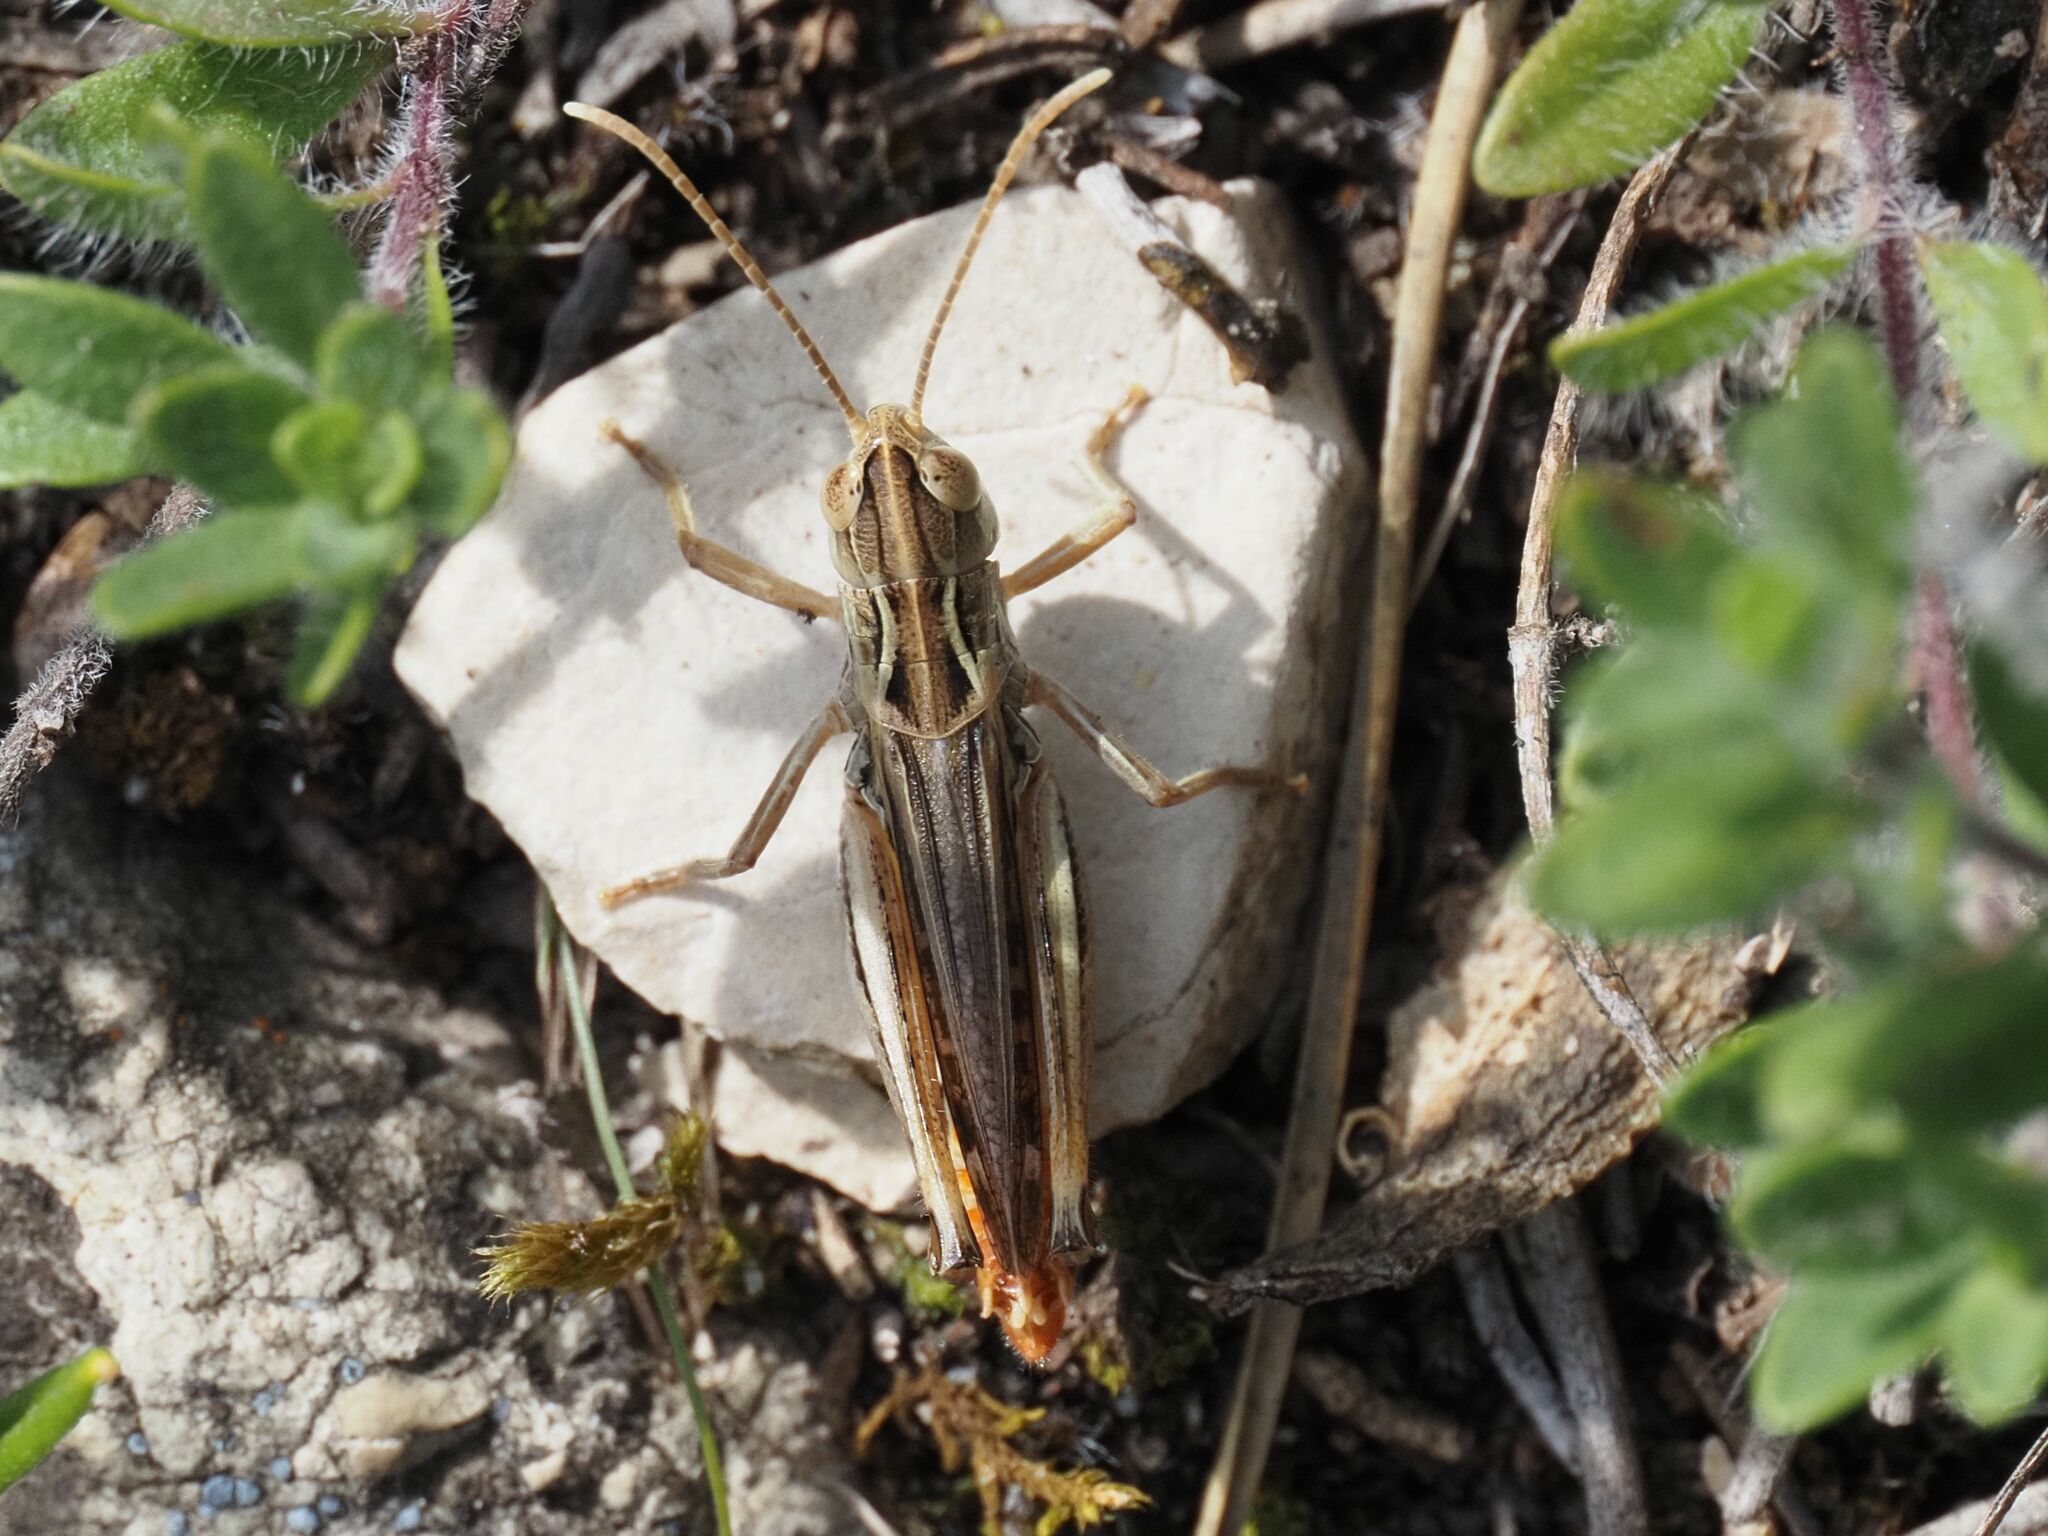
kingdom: Animalia
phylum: Arthropoda
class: Insecta
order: Orthoptera
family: Acrididae
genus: Stenobothrus
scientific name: Stenobothrus nigromaculatus
